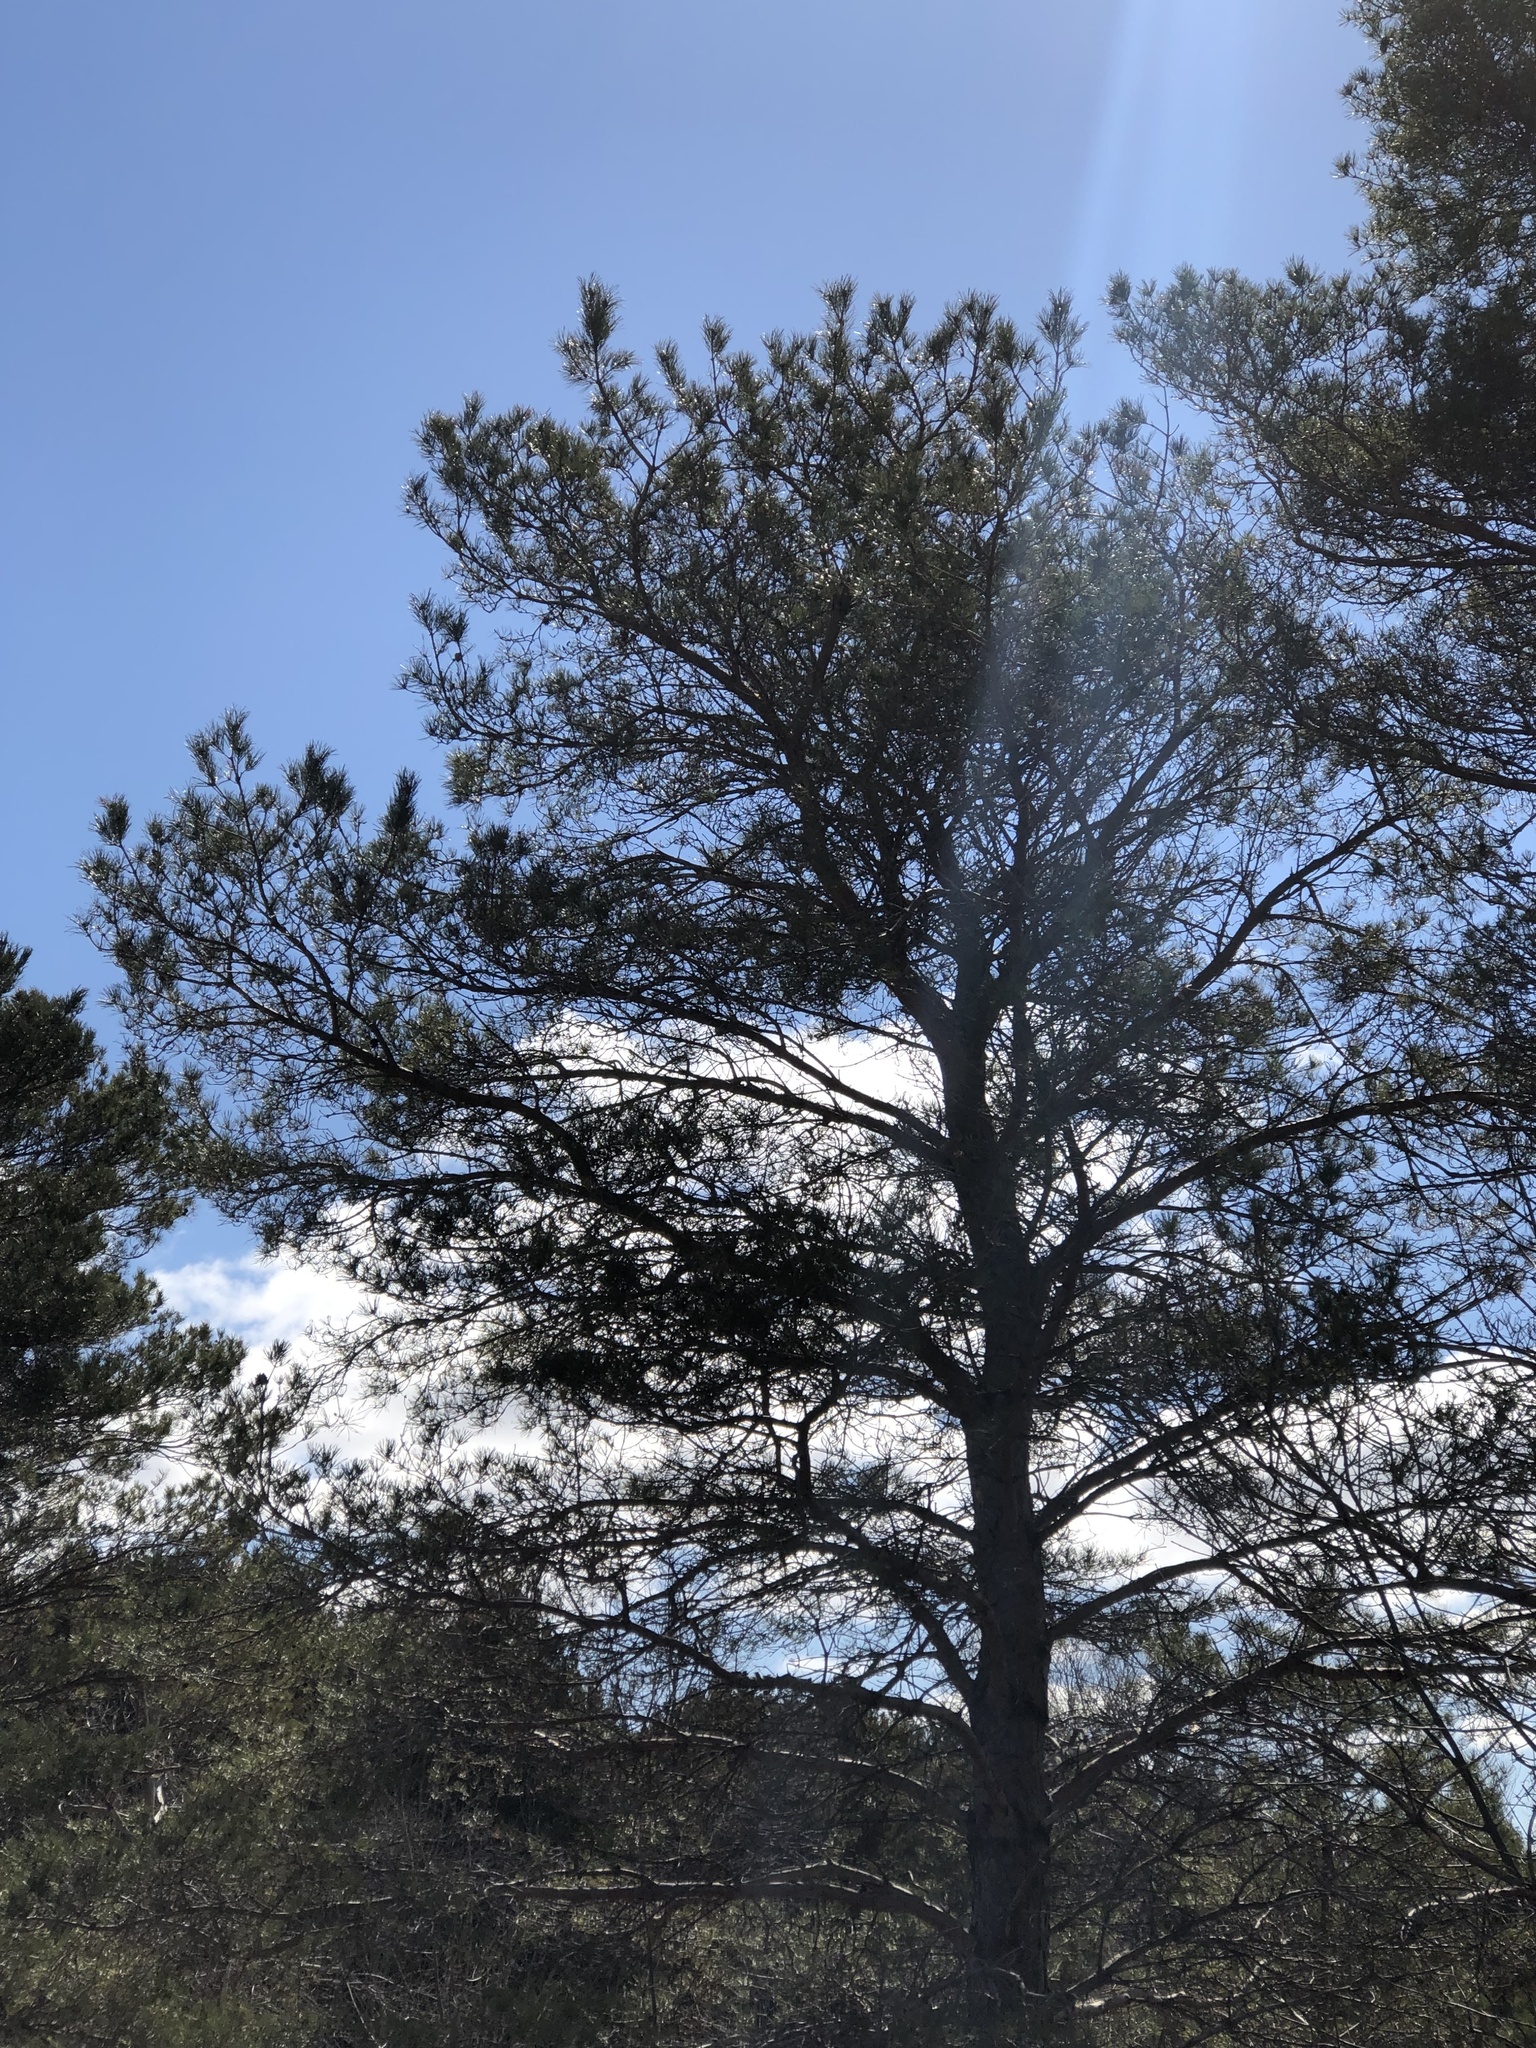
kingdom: Plantae
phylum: Tracheophyta
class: Pinopsida
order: Pinales
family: Pinaceae
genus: Pinus
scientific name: Pinus sylvestris
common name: Scots pine
